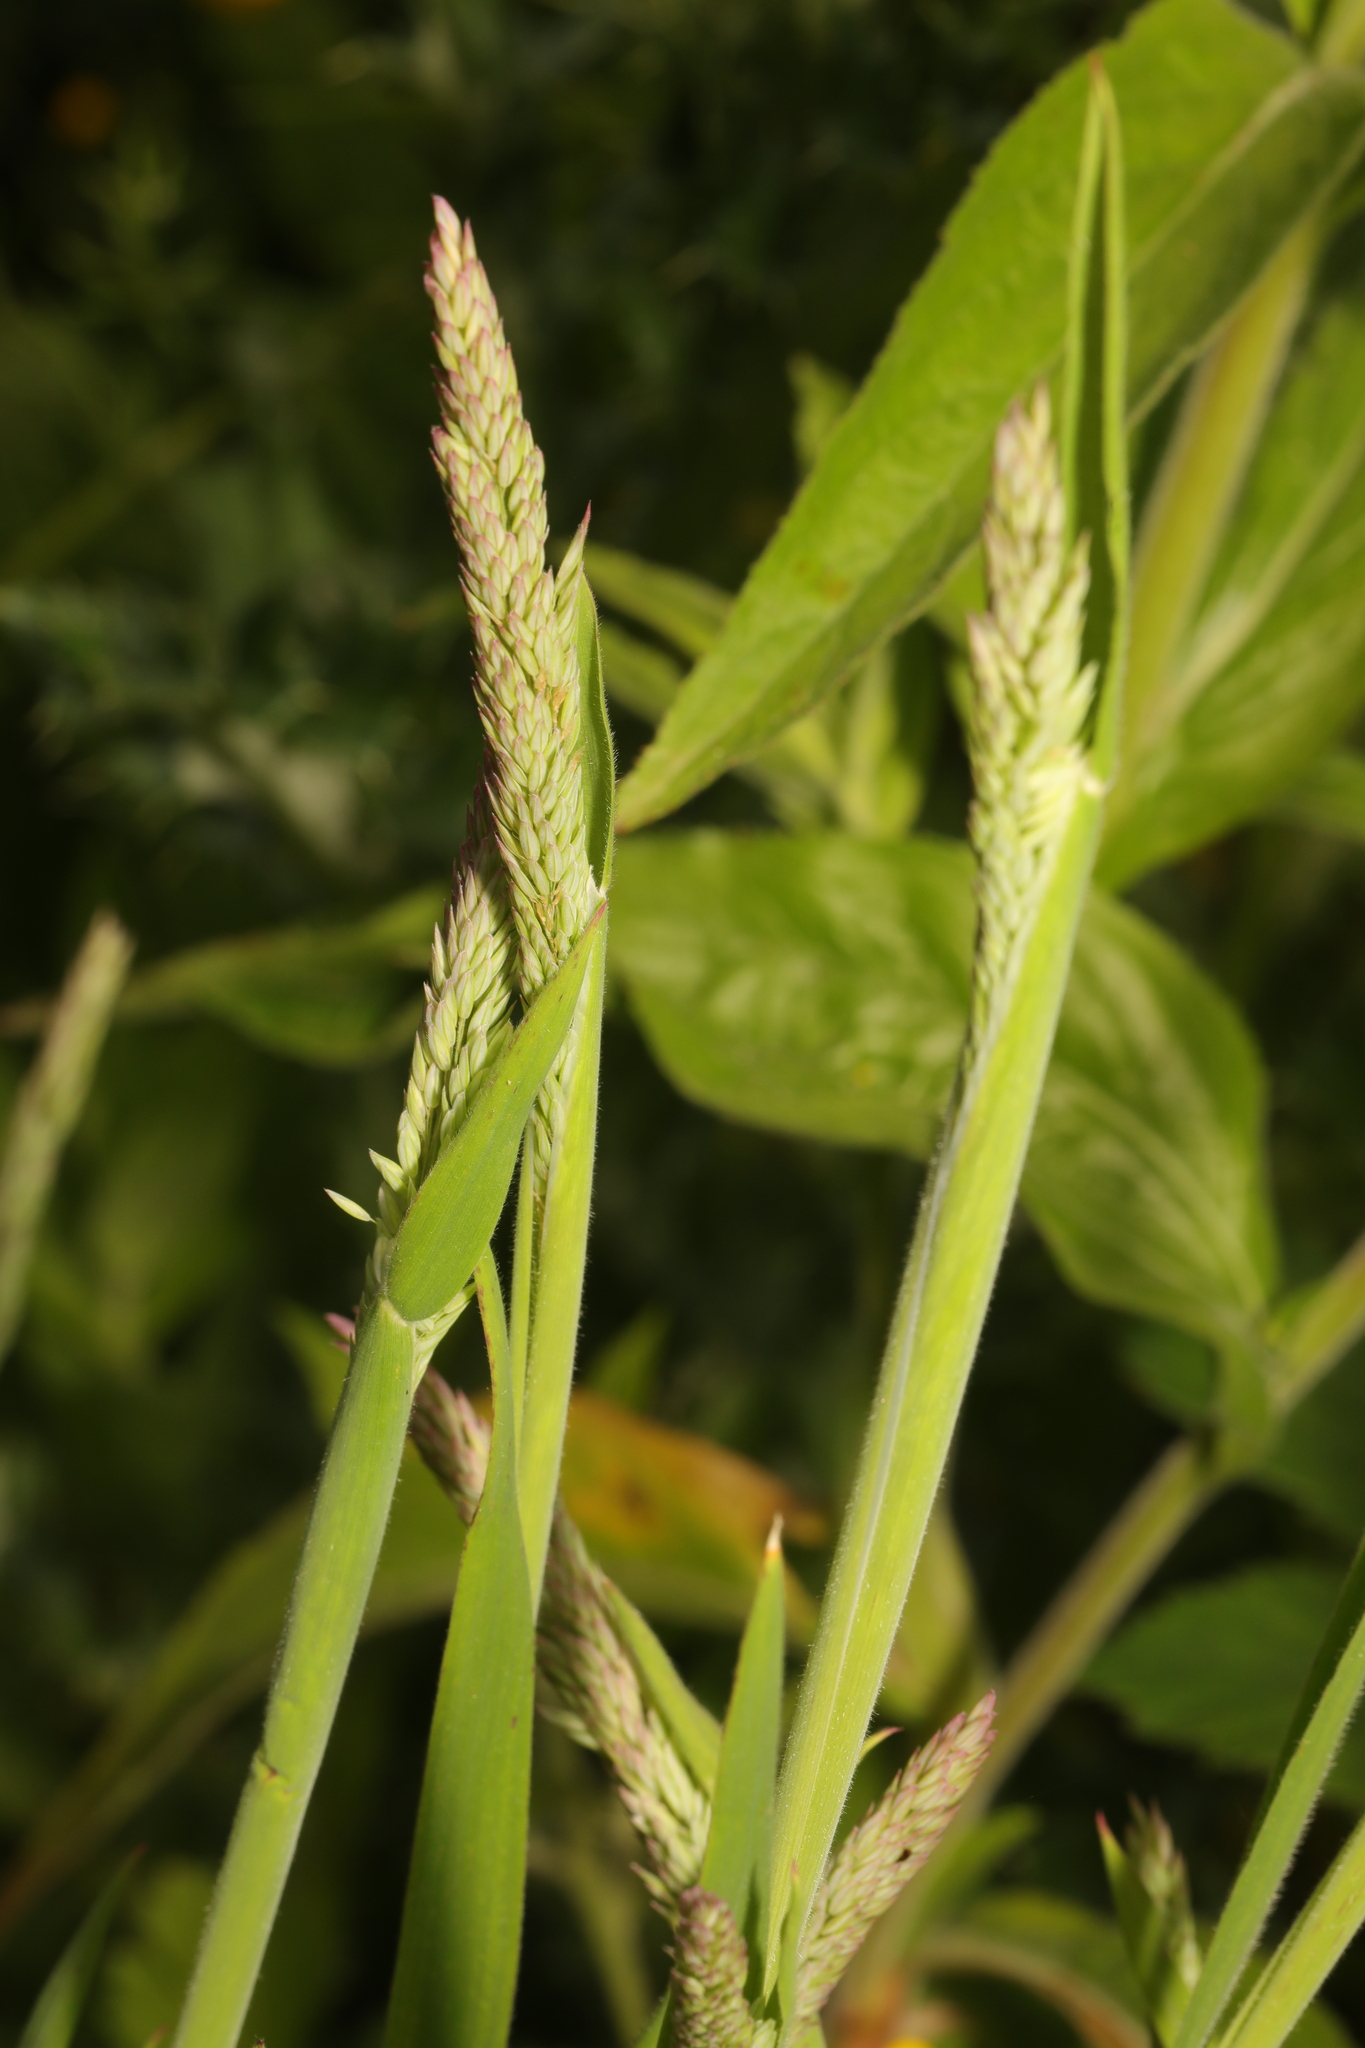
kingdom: Plantae
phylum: Tracheophyta
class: Liliopsida
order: Poales
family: Poaceae
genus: Holcus
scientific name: Holcus lanatus
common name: Yorkshire-fog
